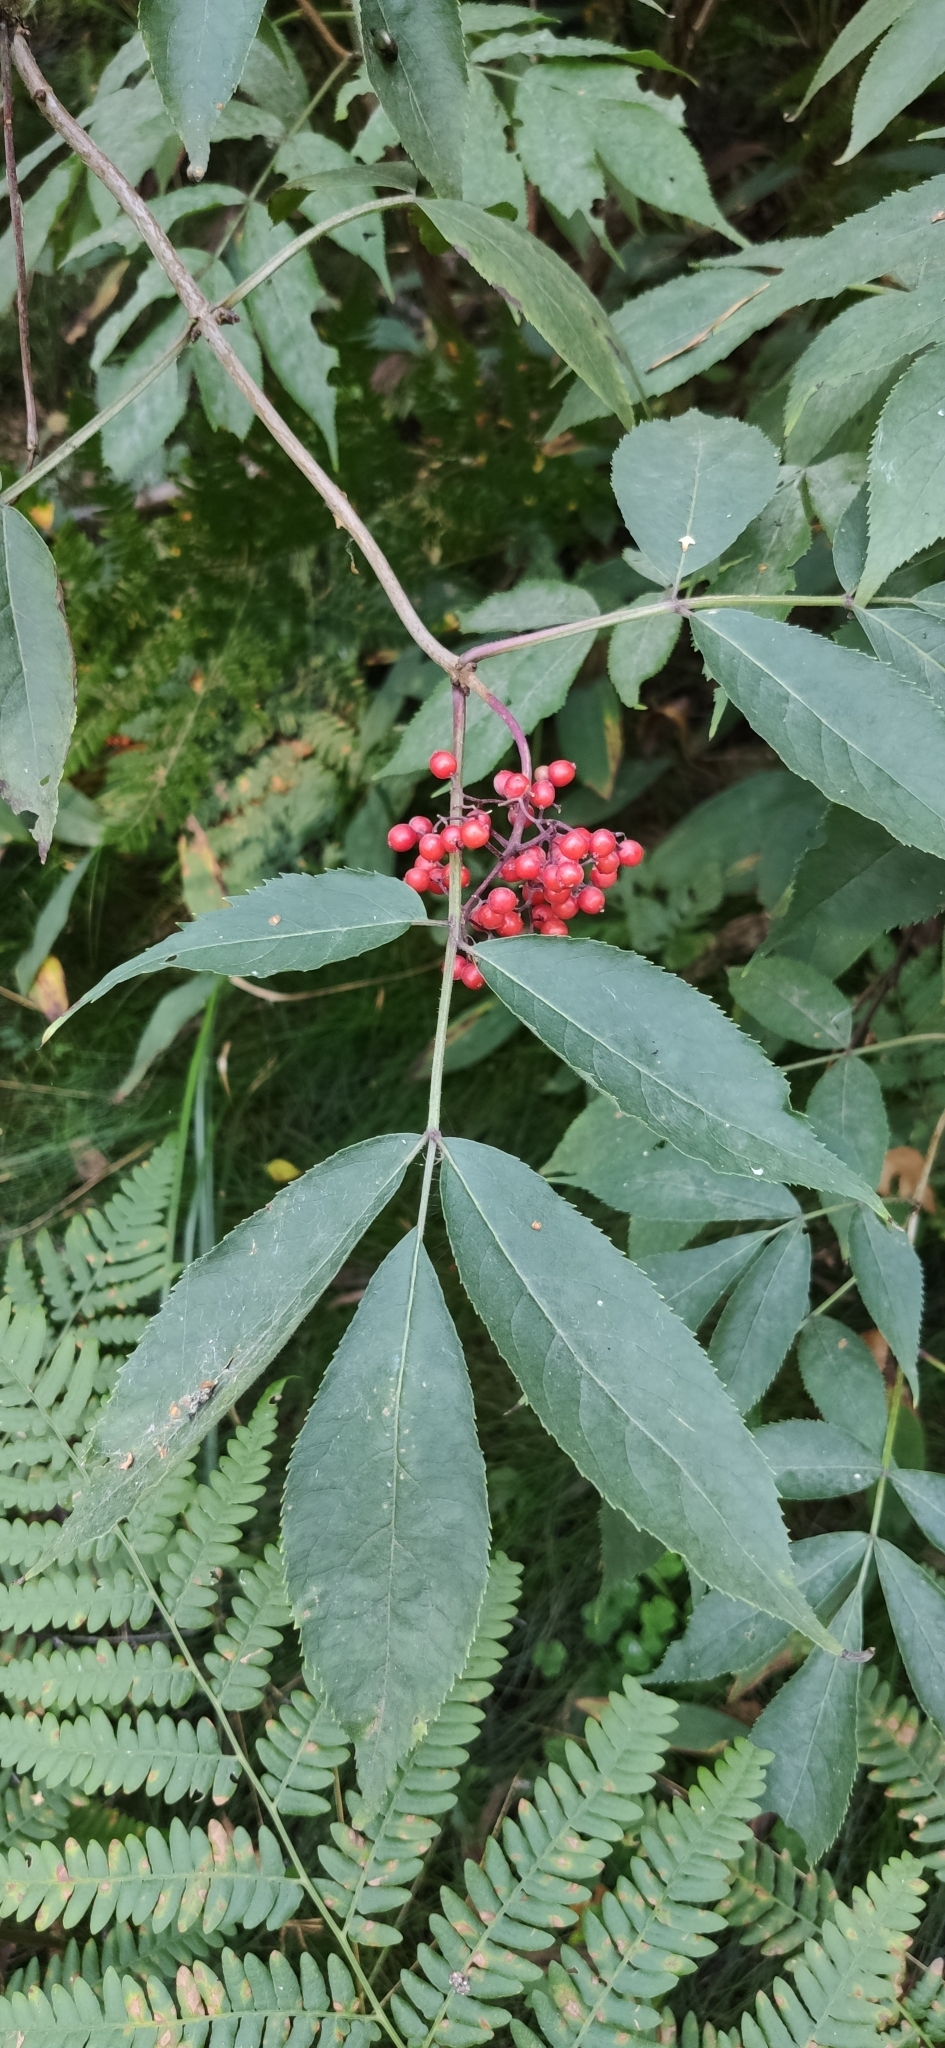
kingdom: Plantae
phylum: Tracheophyta
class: Magnoliopsida
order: Dipsacales
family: Viburnaceae
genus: Sambucus
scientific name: Sambucus racemosa
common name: Red-berried elder
